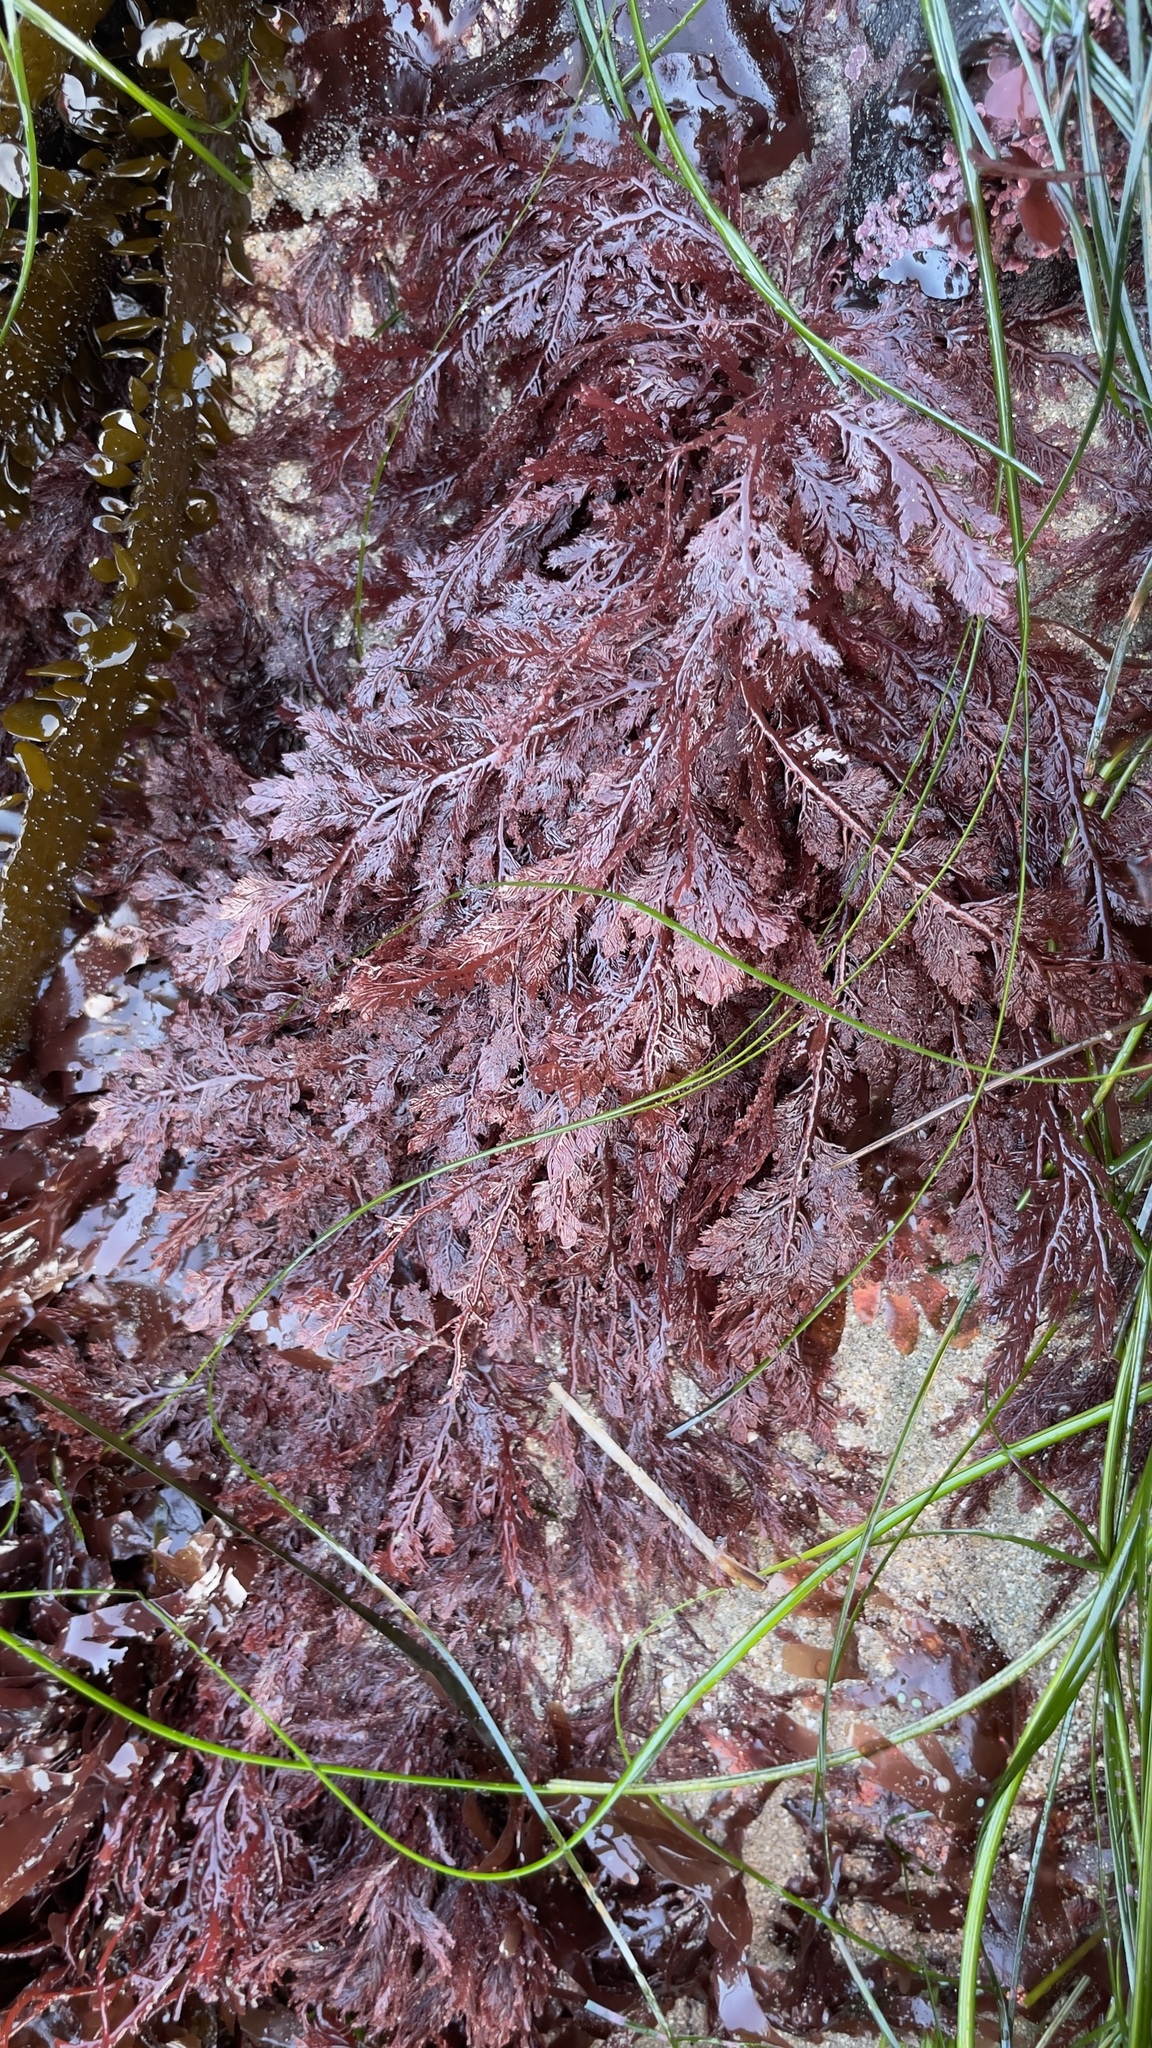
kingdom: Plantae
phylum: Rhodophyta
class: Florideophyceae
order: Plocamiales
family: Plocamiaceae
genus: Plocamium
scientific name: Plocamium cartilagineum
